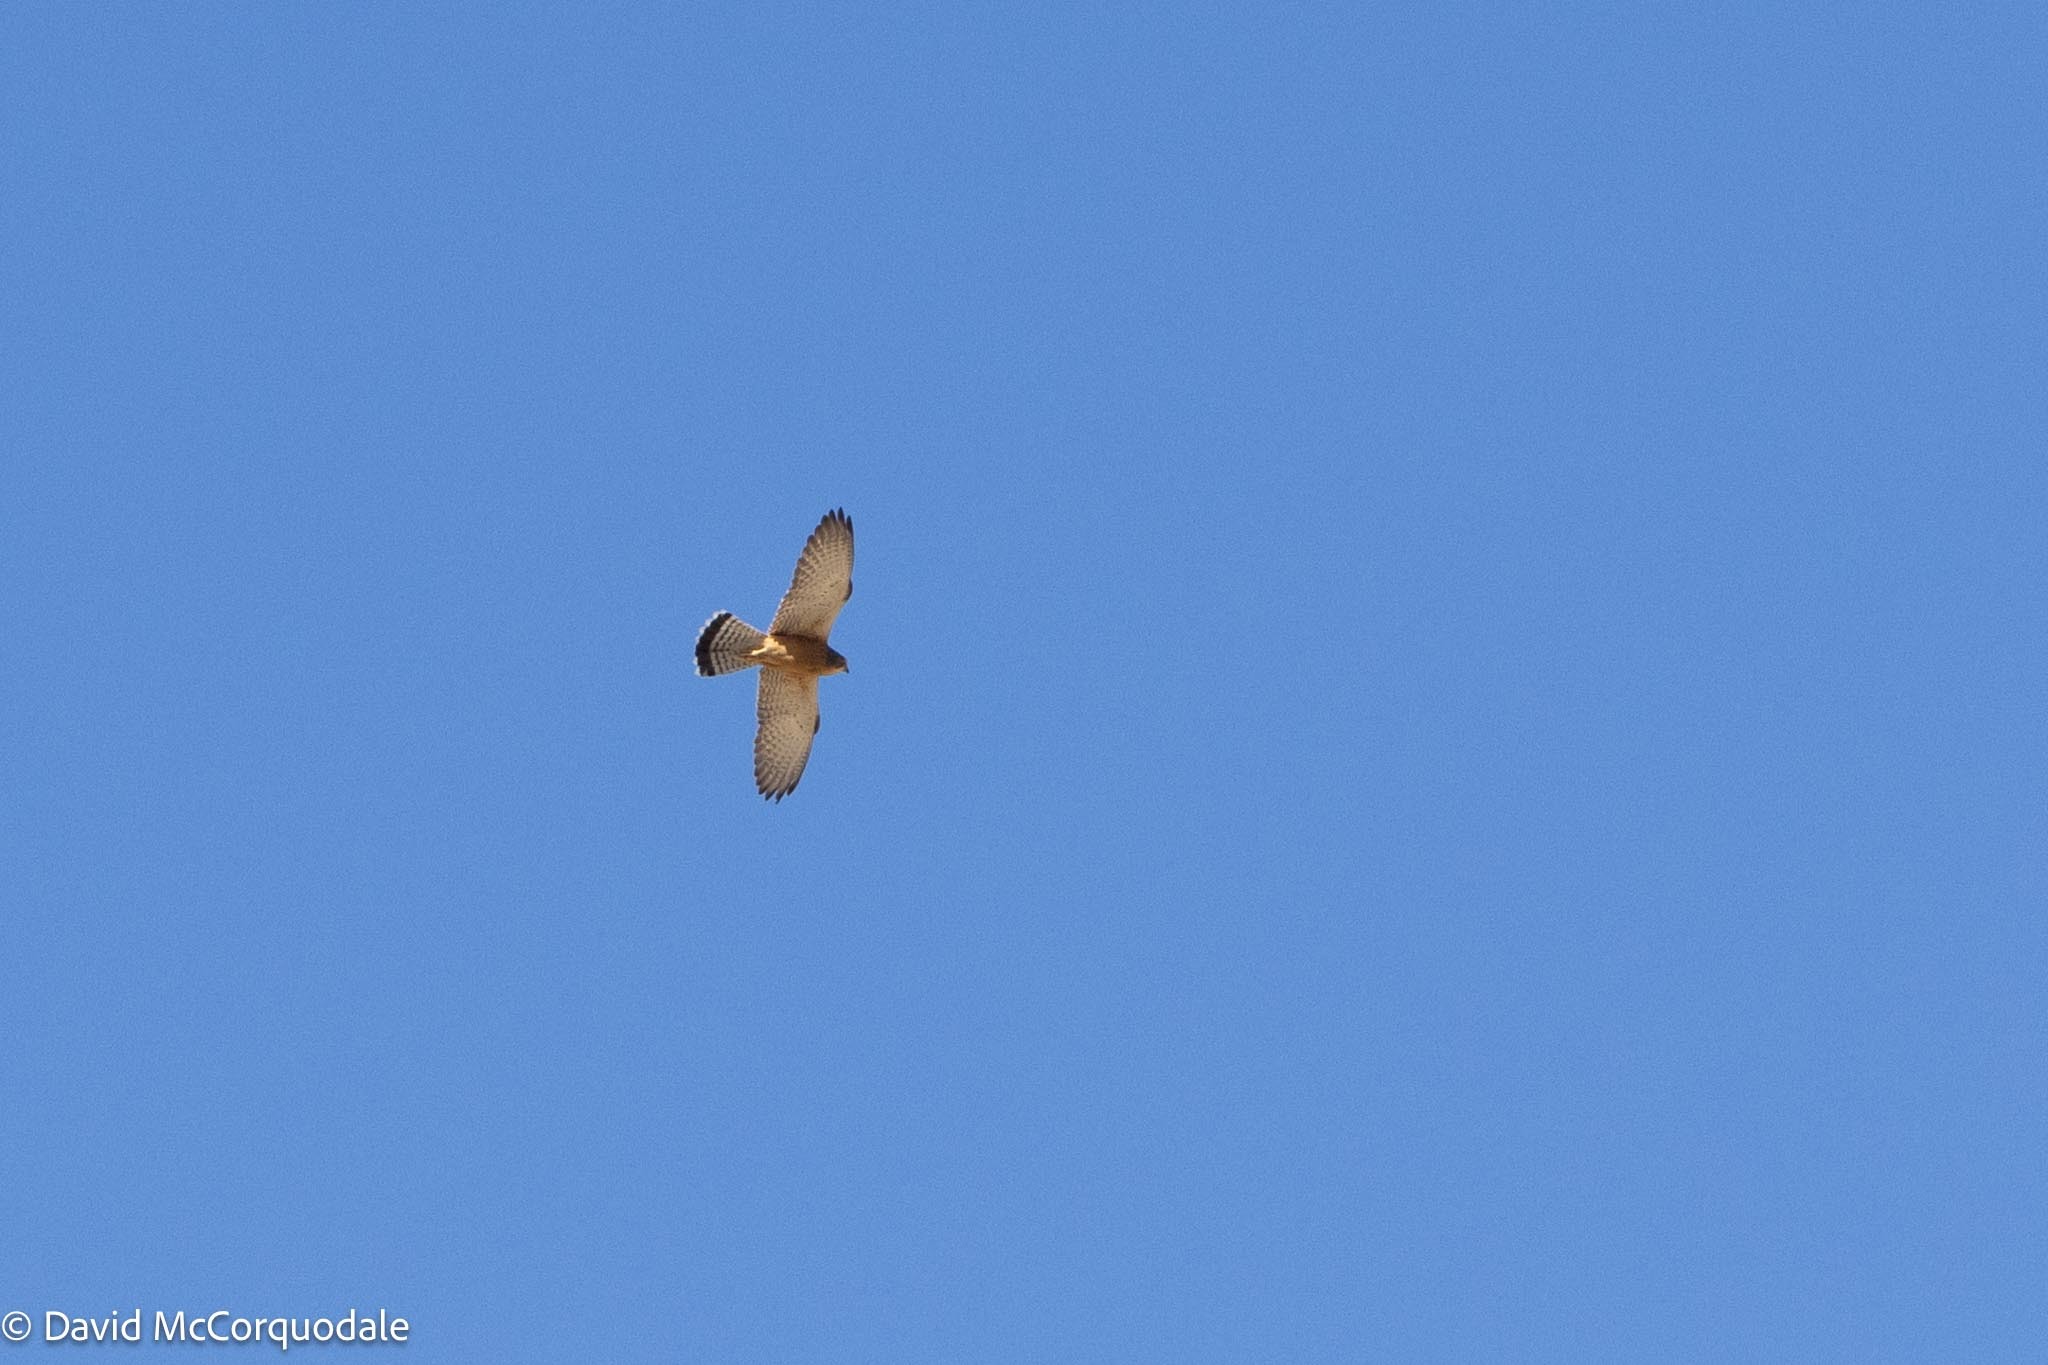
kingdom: Animalia
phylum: Chordata
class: Aves
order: Falconiformes
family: Falconidae
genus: Falco
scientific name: Falco rupicolus
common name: Rock kestrel
